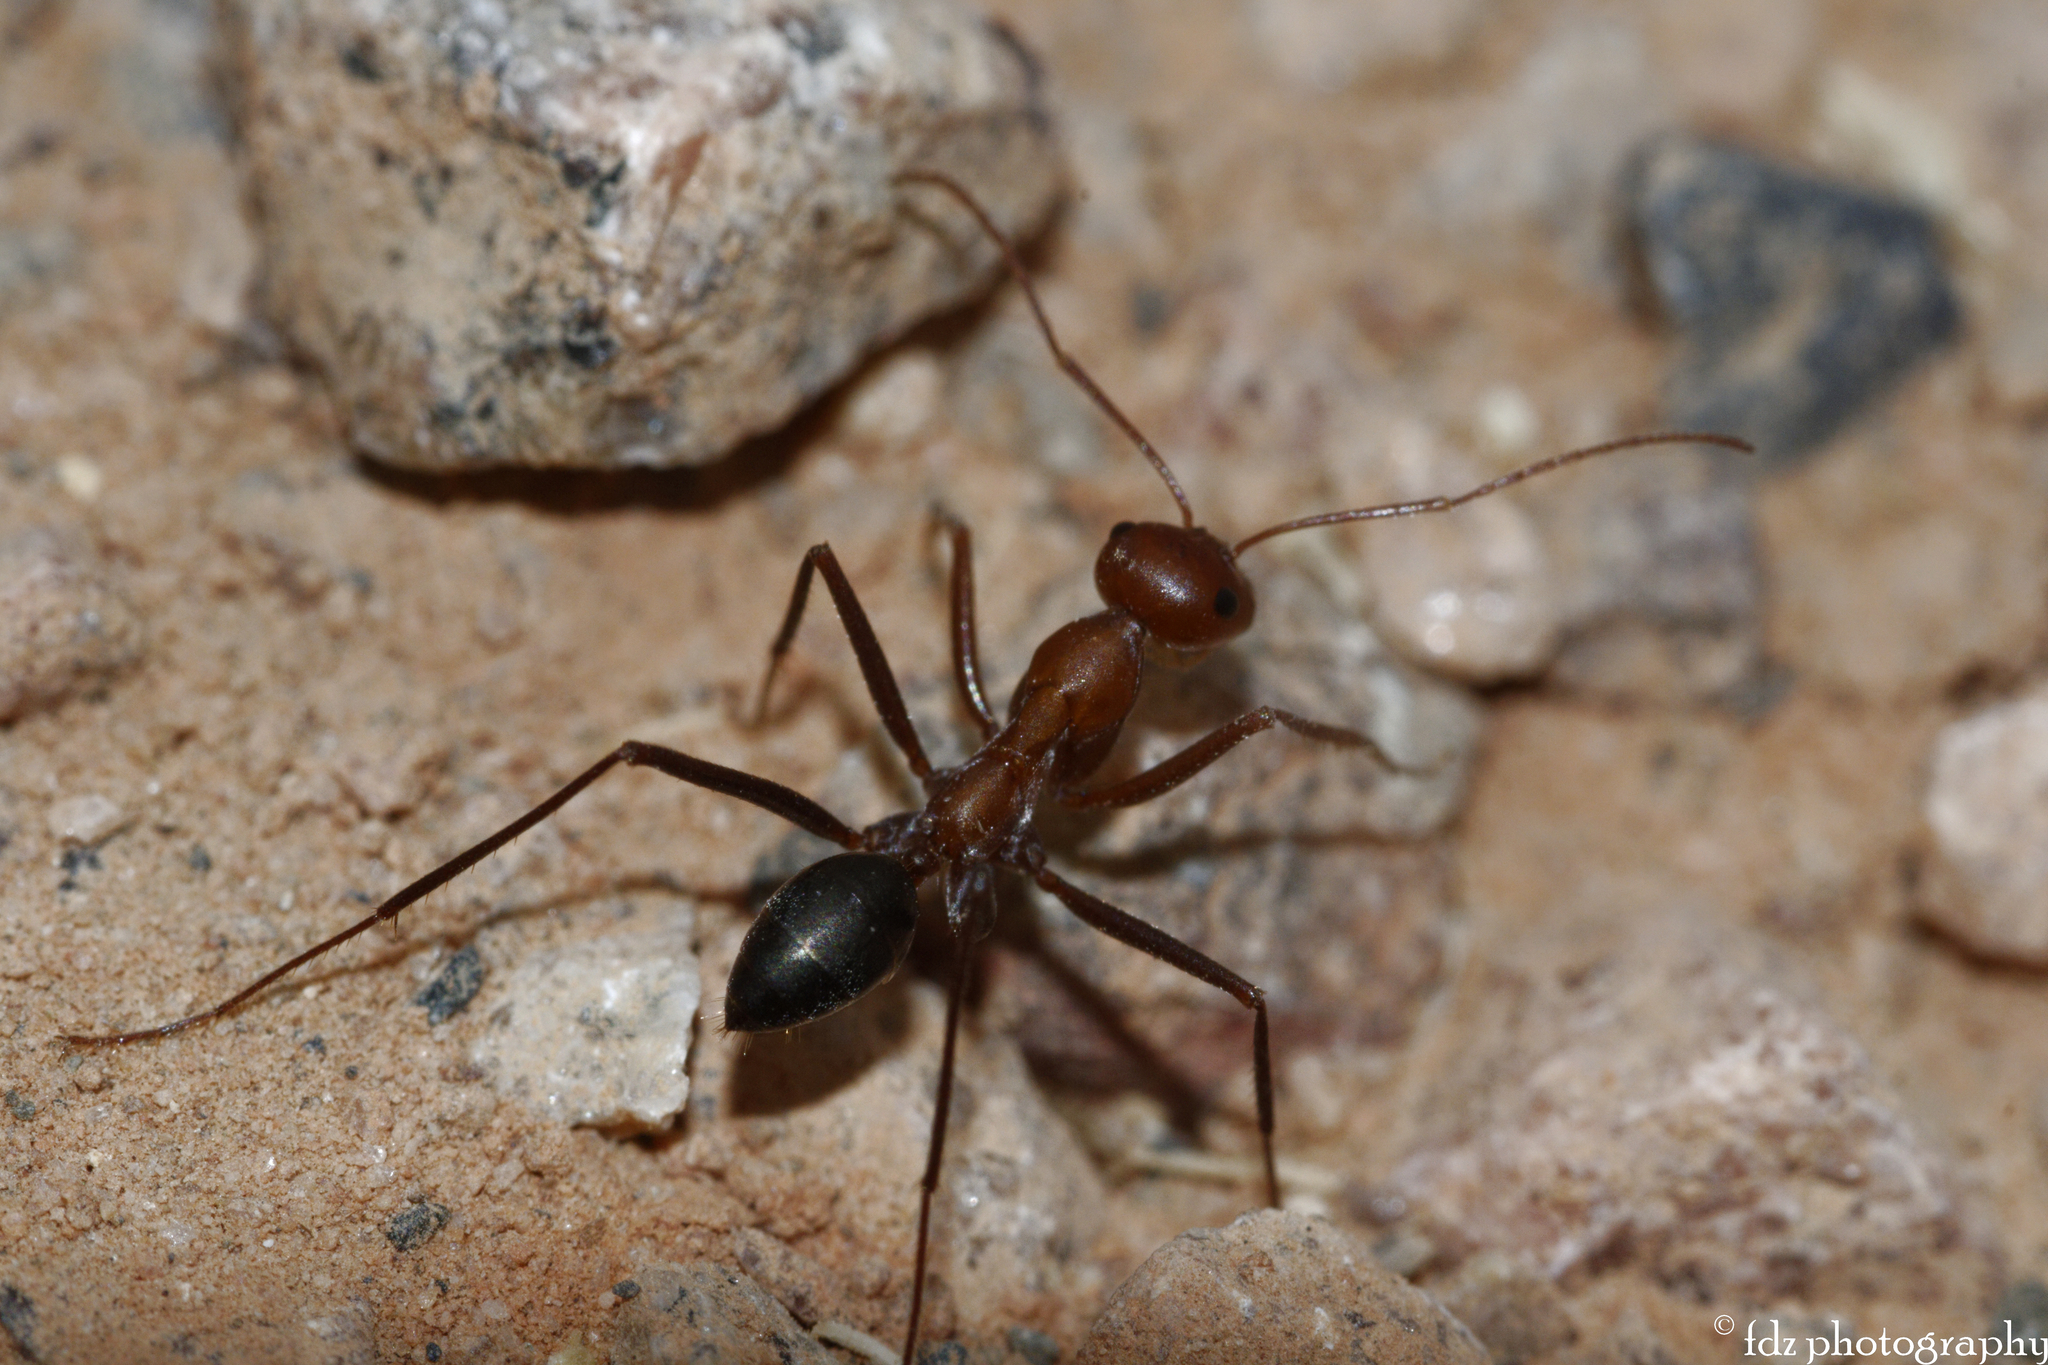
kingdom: Animalia
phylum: Arthropoda
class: Insecta
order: Hymenoptera
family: Formicidae
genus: Cataglyphis
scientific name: Cataglyphis velox
